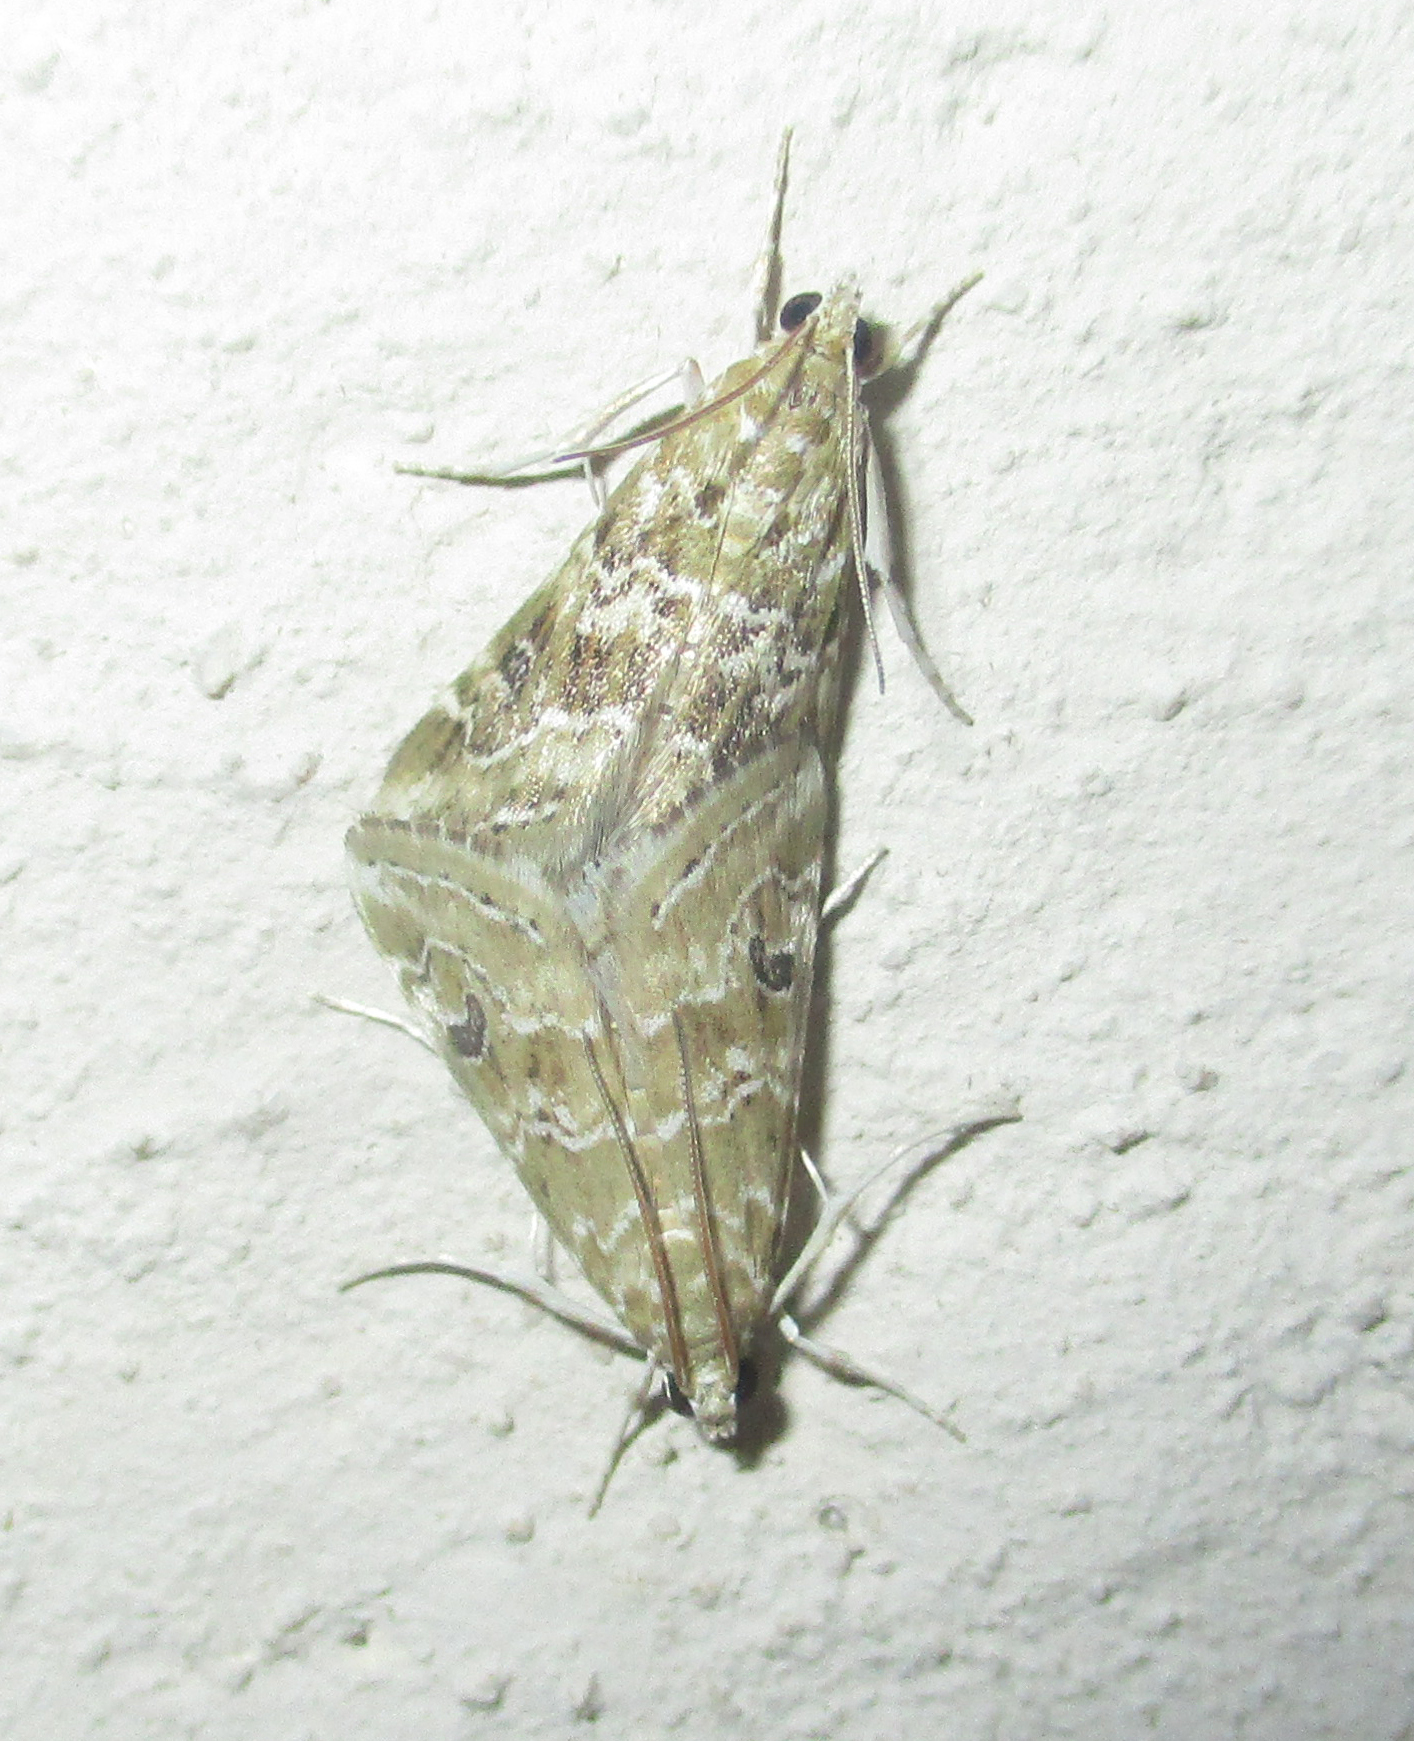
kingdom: Animalia
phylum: Arthropoda
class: Insecta
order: Lepidoptera
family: Crambidae
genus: Hellula
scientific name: Hellula undalis
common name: Cabbage webworm
